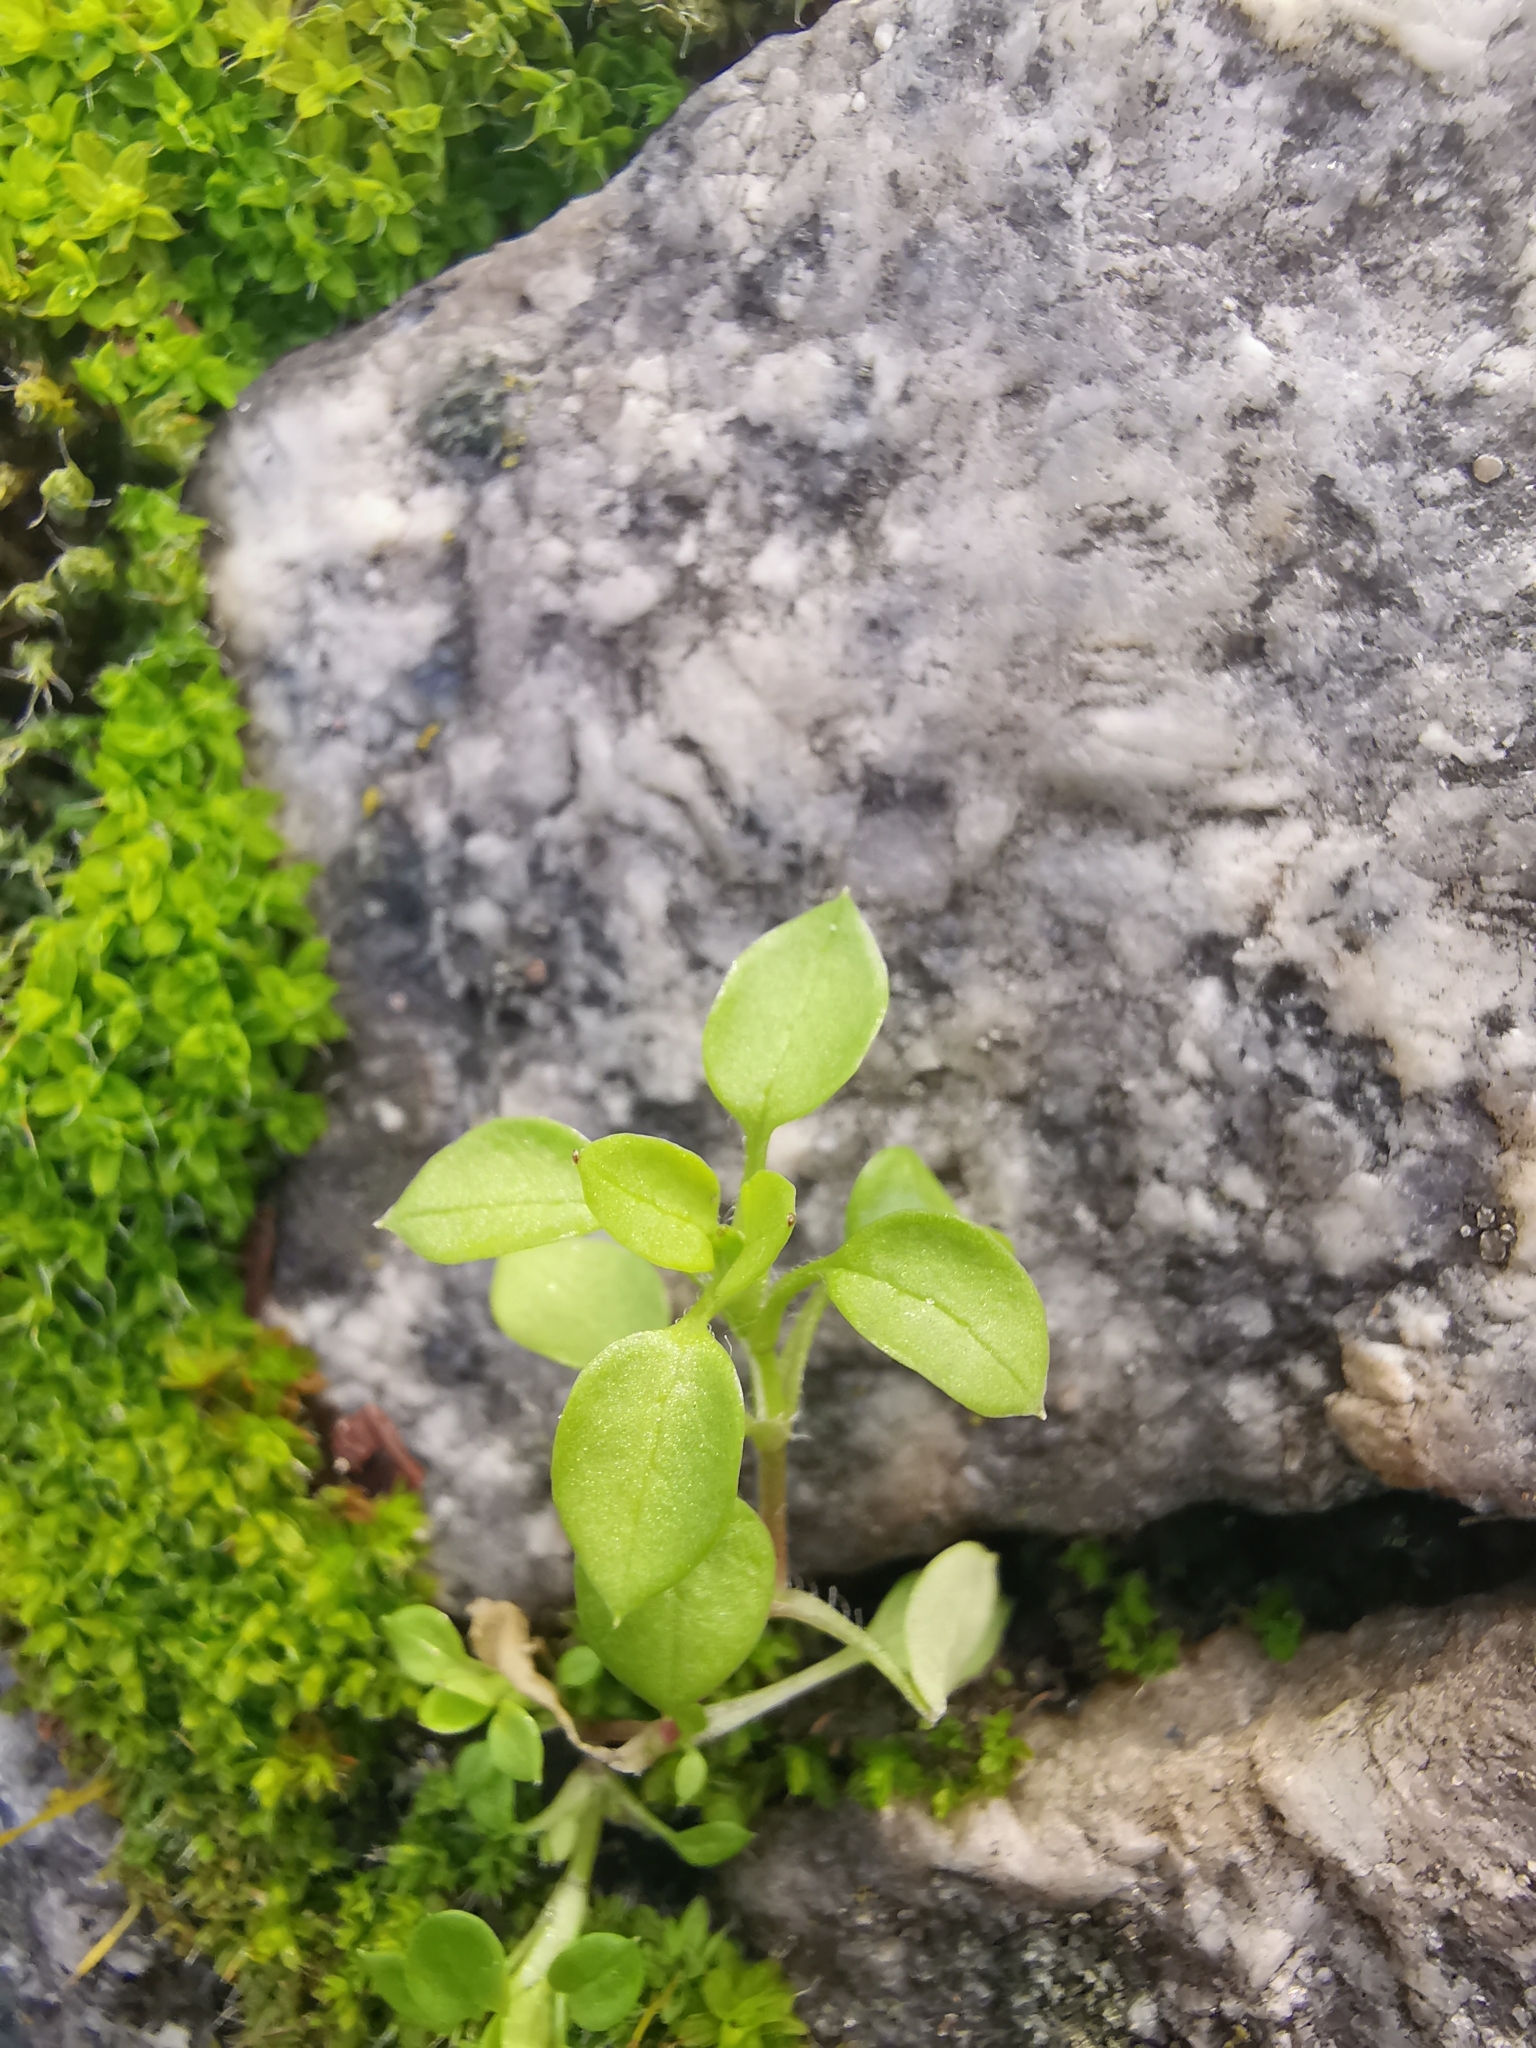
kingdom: Plantae
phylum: Tracheophyta
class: Magnoliopsida
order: Caryophyllales
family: Caryophyllaceae
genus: Stellaria
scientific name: Stellaria media
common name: Common chickweed
